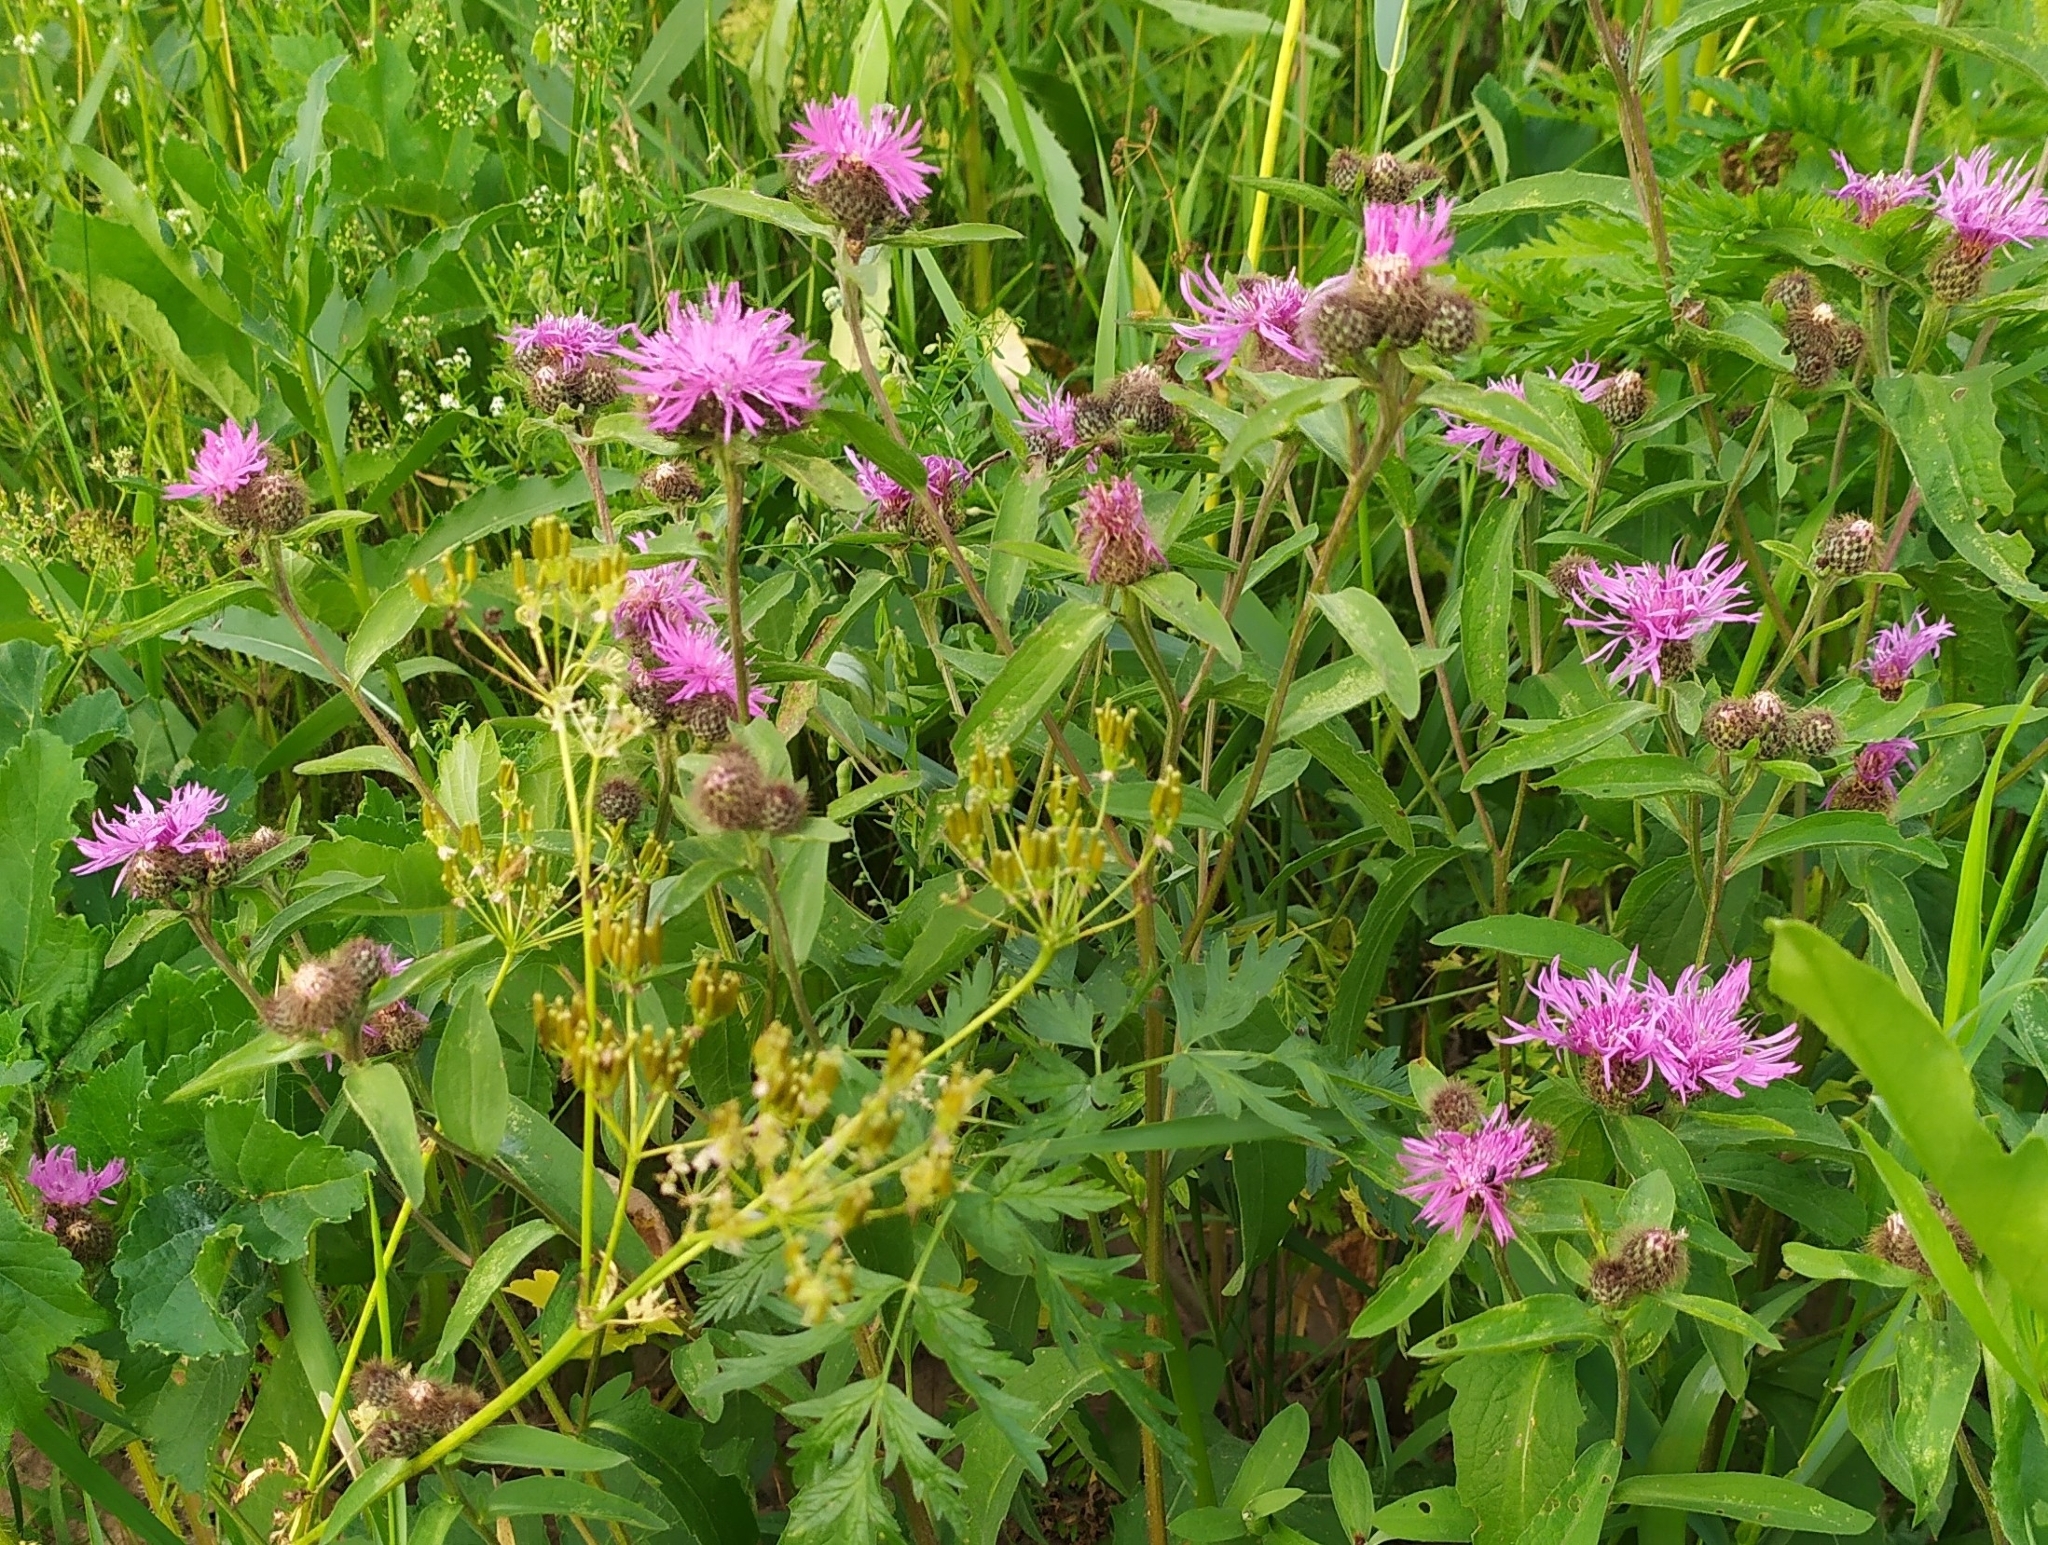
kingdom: Plantae
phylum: Tracheophyta
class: Magnoliopsida
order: Asterales
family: Asteraceae
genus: Centaurea
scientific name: Centaurea phrygia
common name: Wig knapweed
